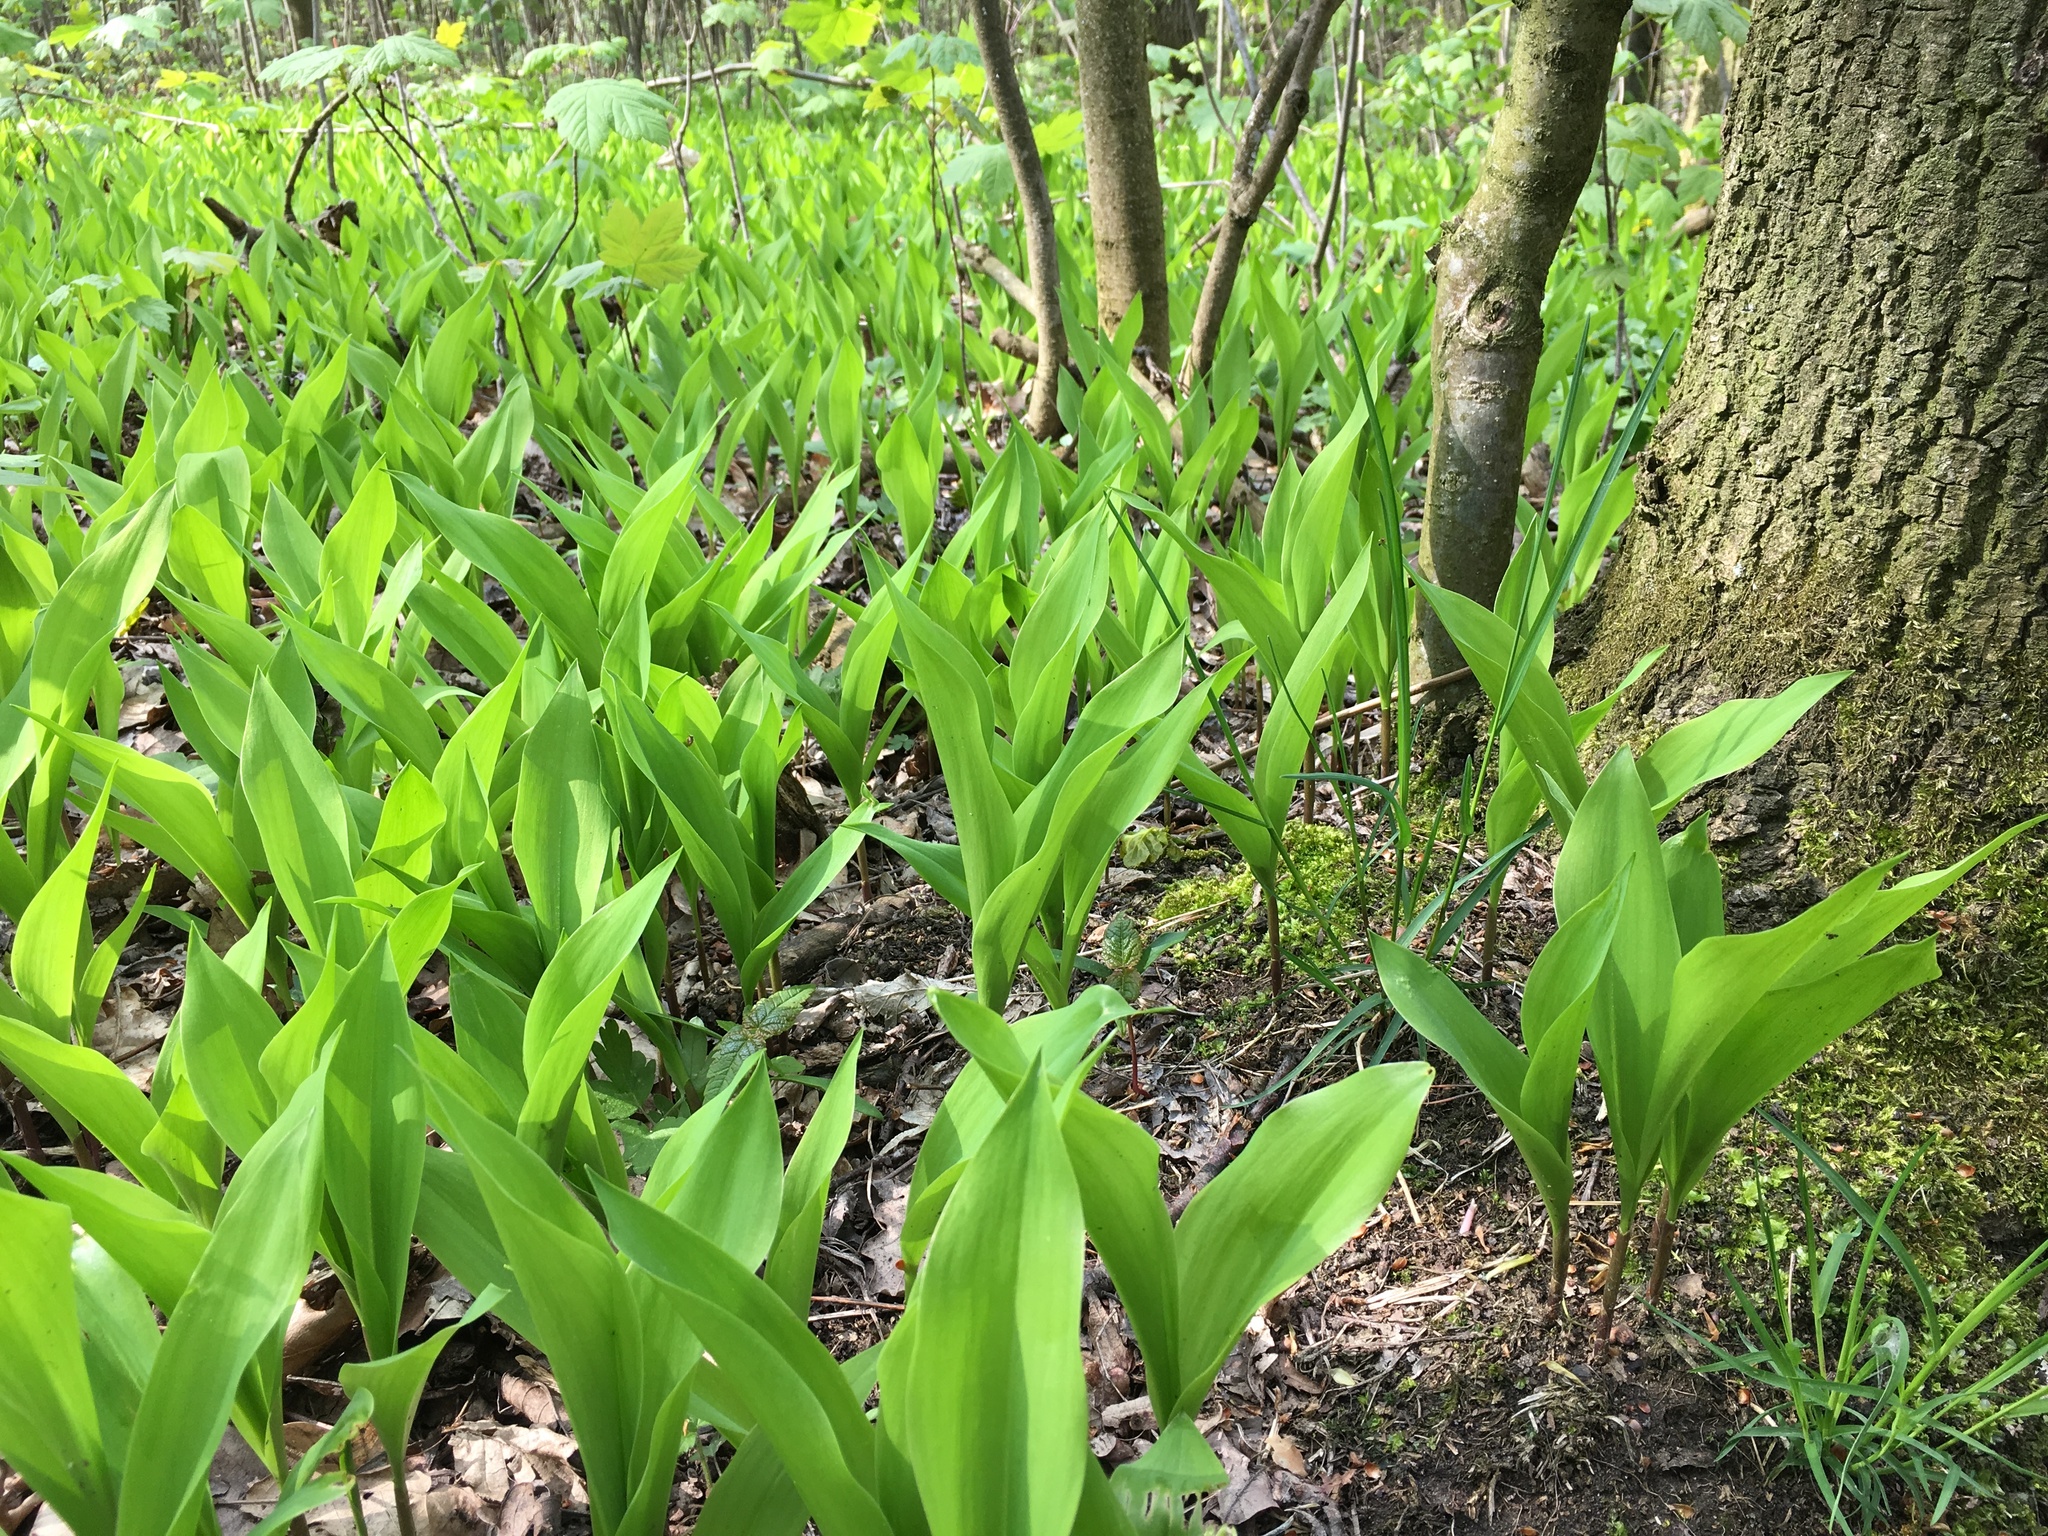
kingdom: Plantae
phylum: Tracheophyta
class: Liliopsida
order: Asparagales
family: Asparagaceae
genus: Convallaria
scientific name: Convallaria majalis
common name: Lily-of-the-valley
